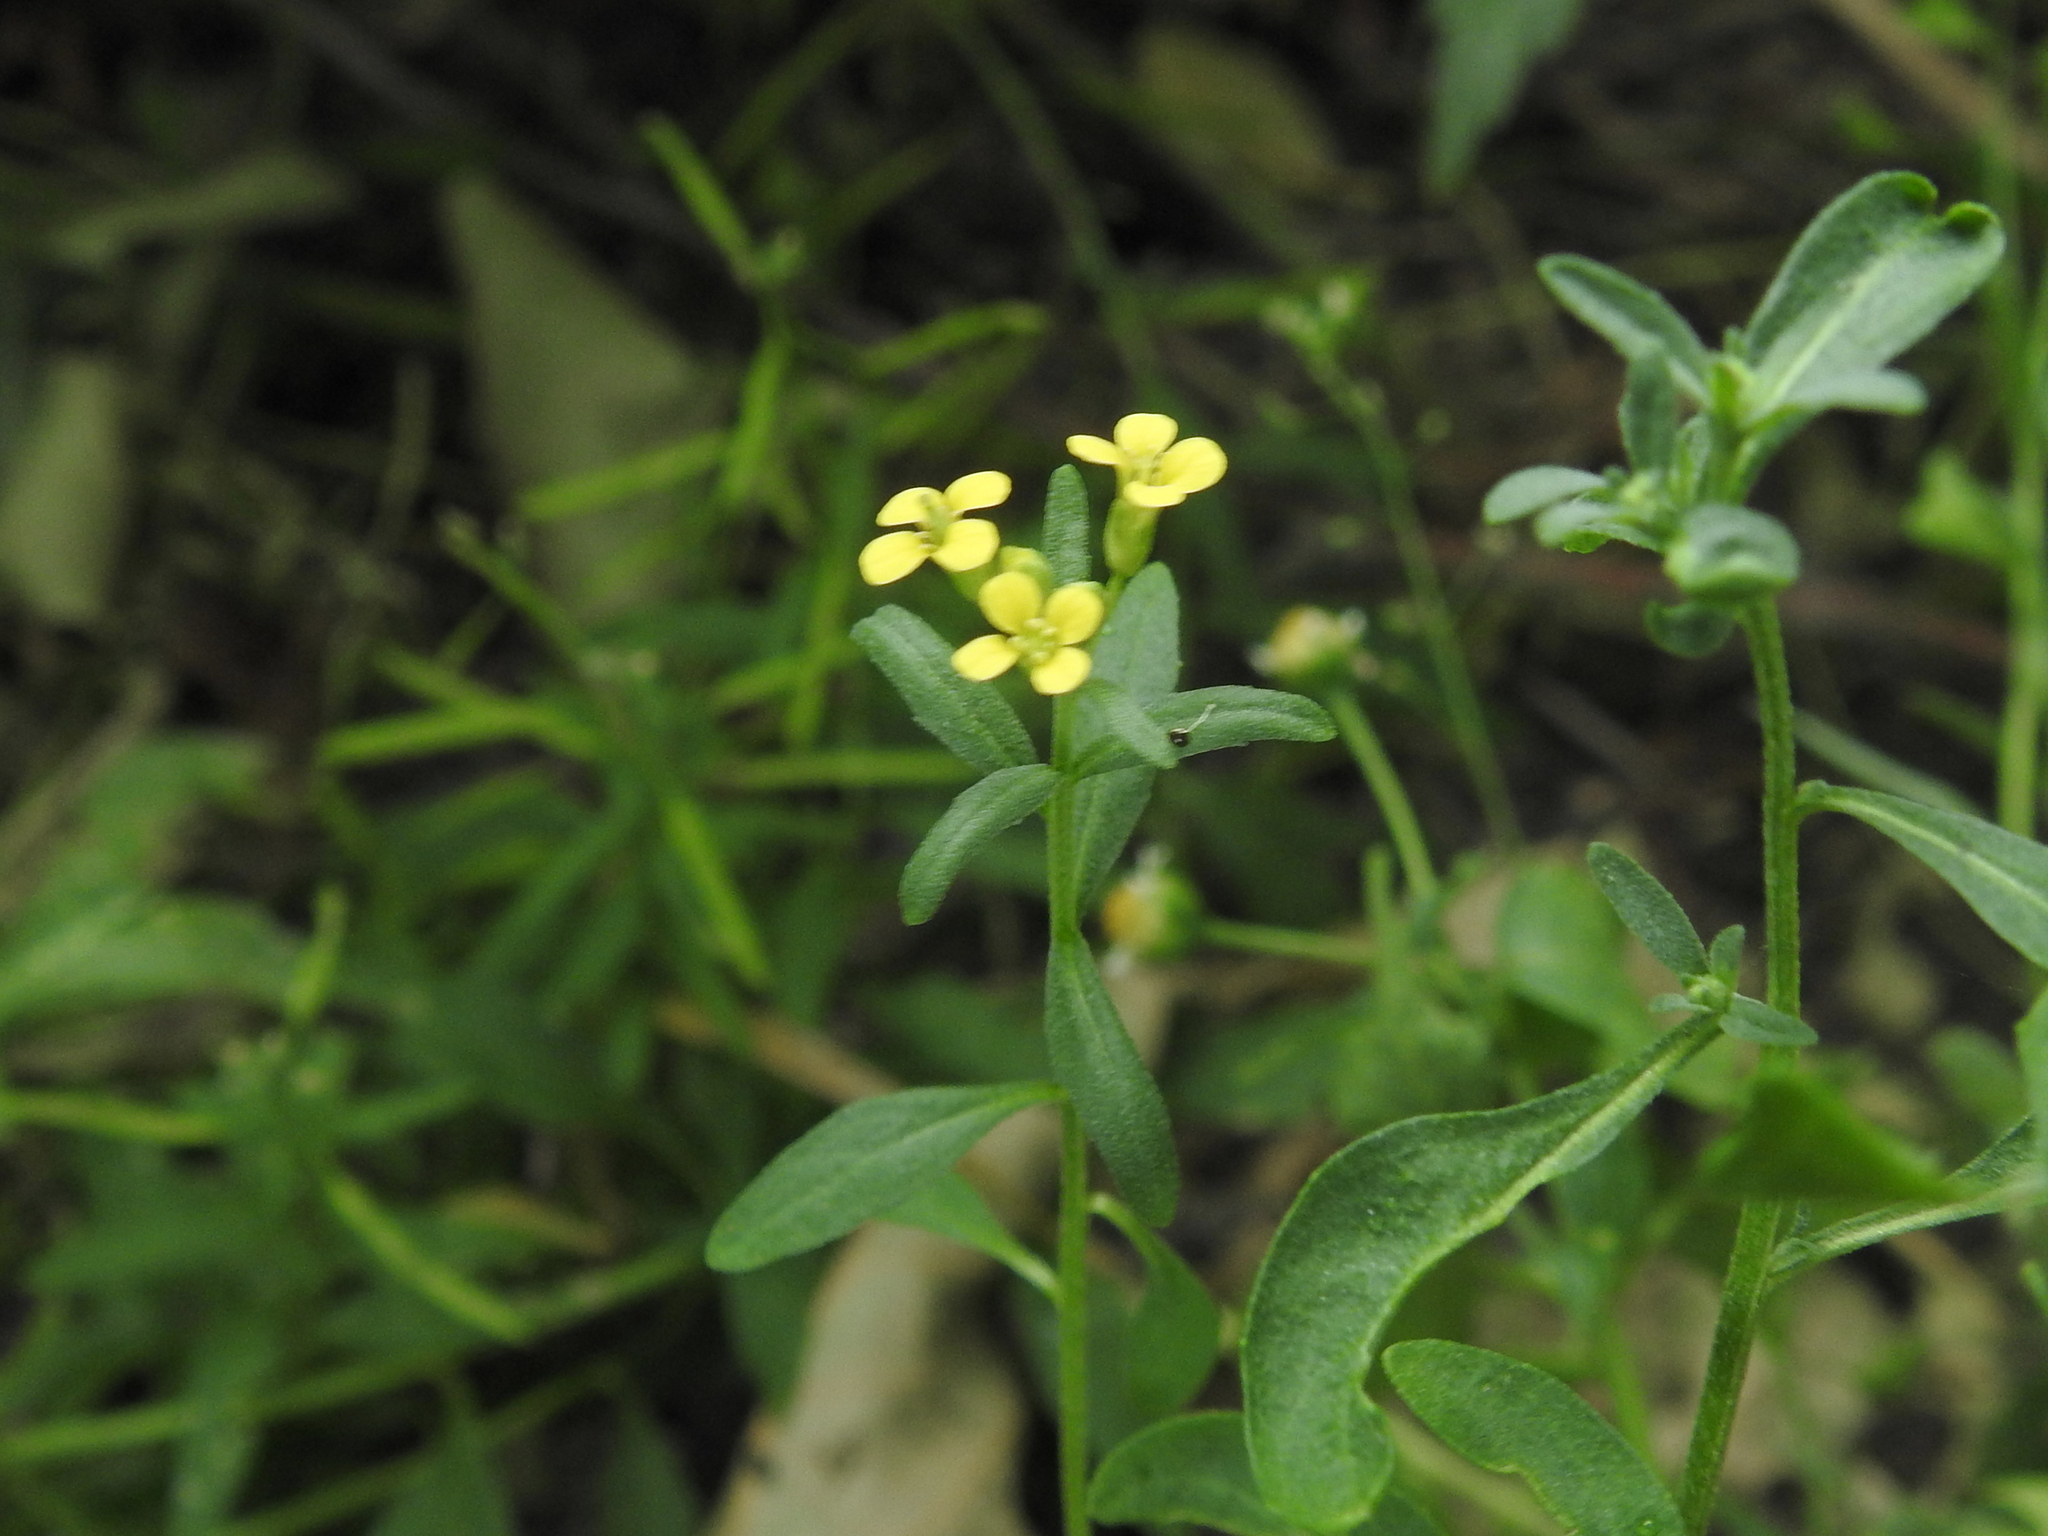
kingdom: Plantae
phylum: Tracheophyta
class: Magnoliopsida
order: Brassicales
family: Brassicaceae
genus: Erysimum
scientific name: Erysimum cheiranthoides
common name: Treacle mustard
